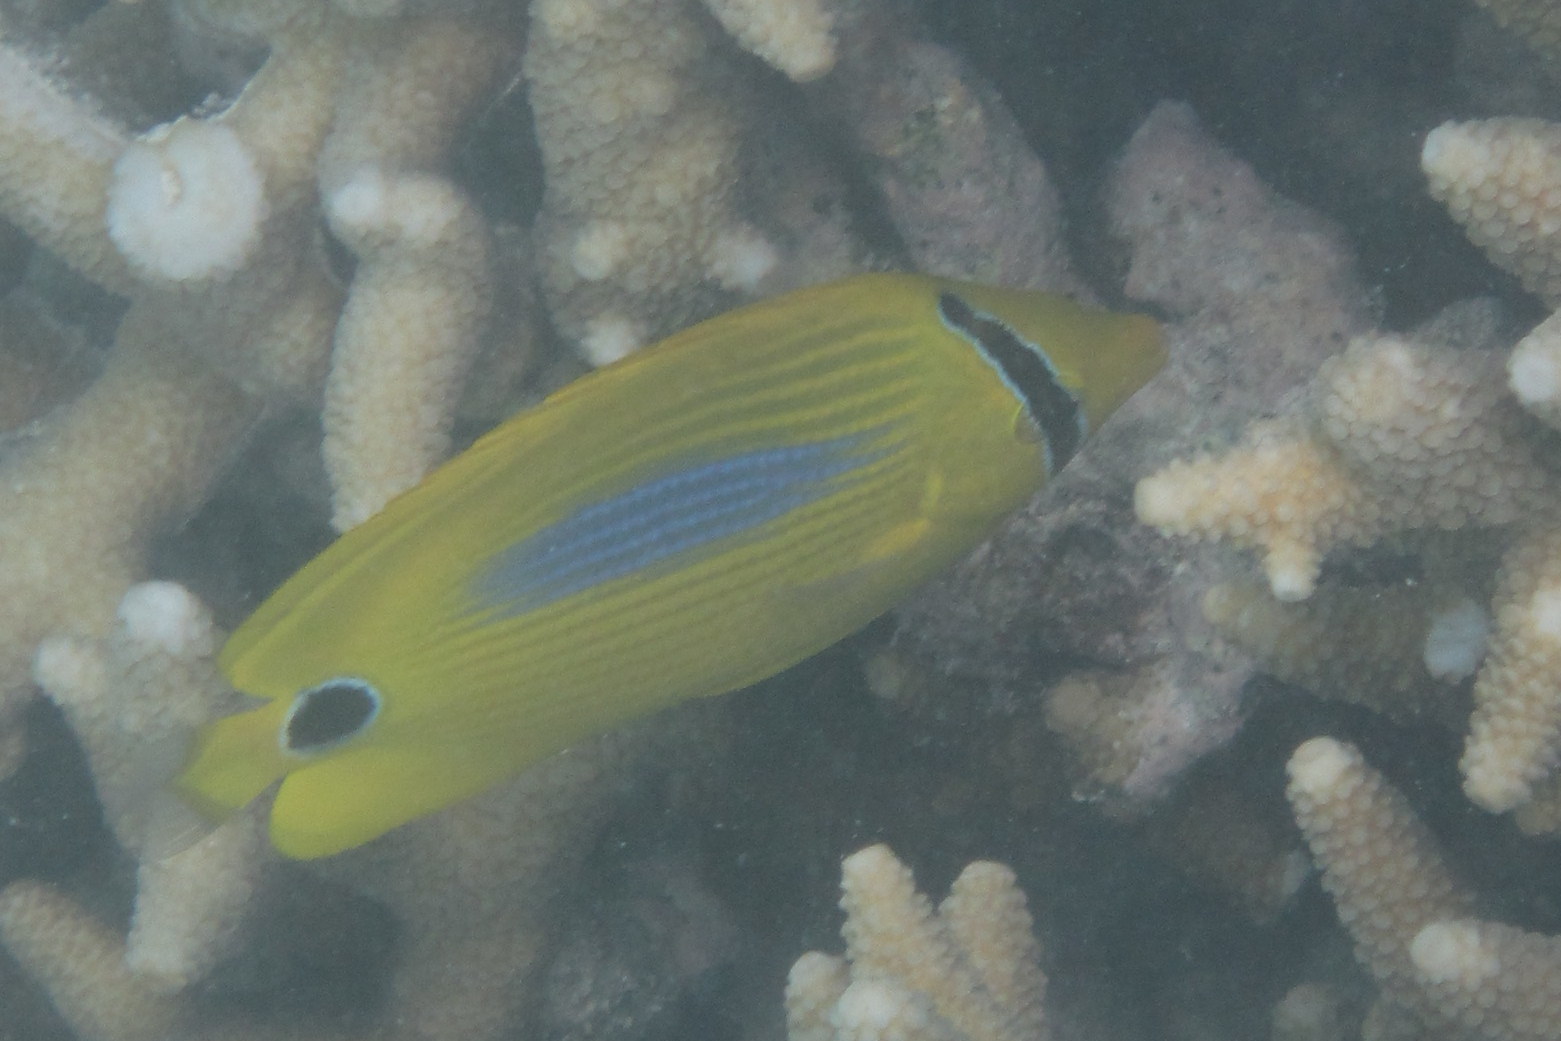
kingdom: Animalia
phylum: Chordata
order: Perciformes
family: Chaetodontidae
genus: Chaetodon
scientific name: Chaetodon plebeius
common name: Bluespot butterflyfish
